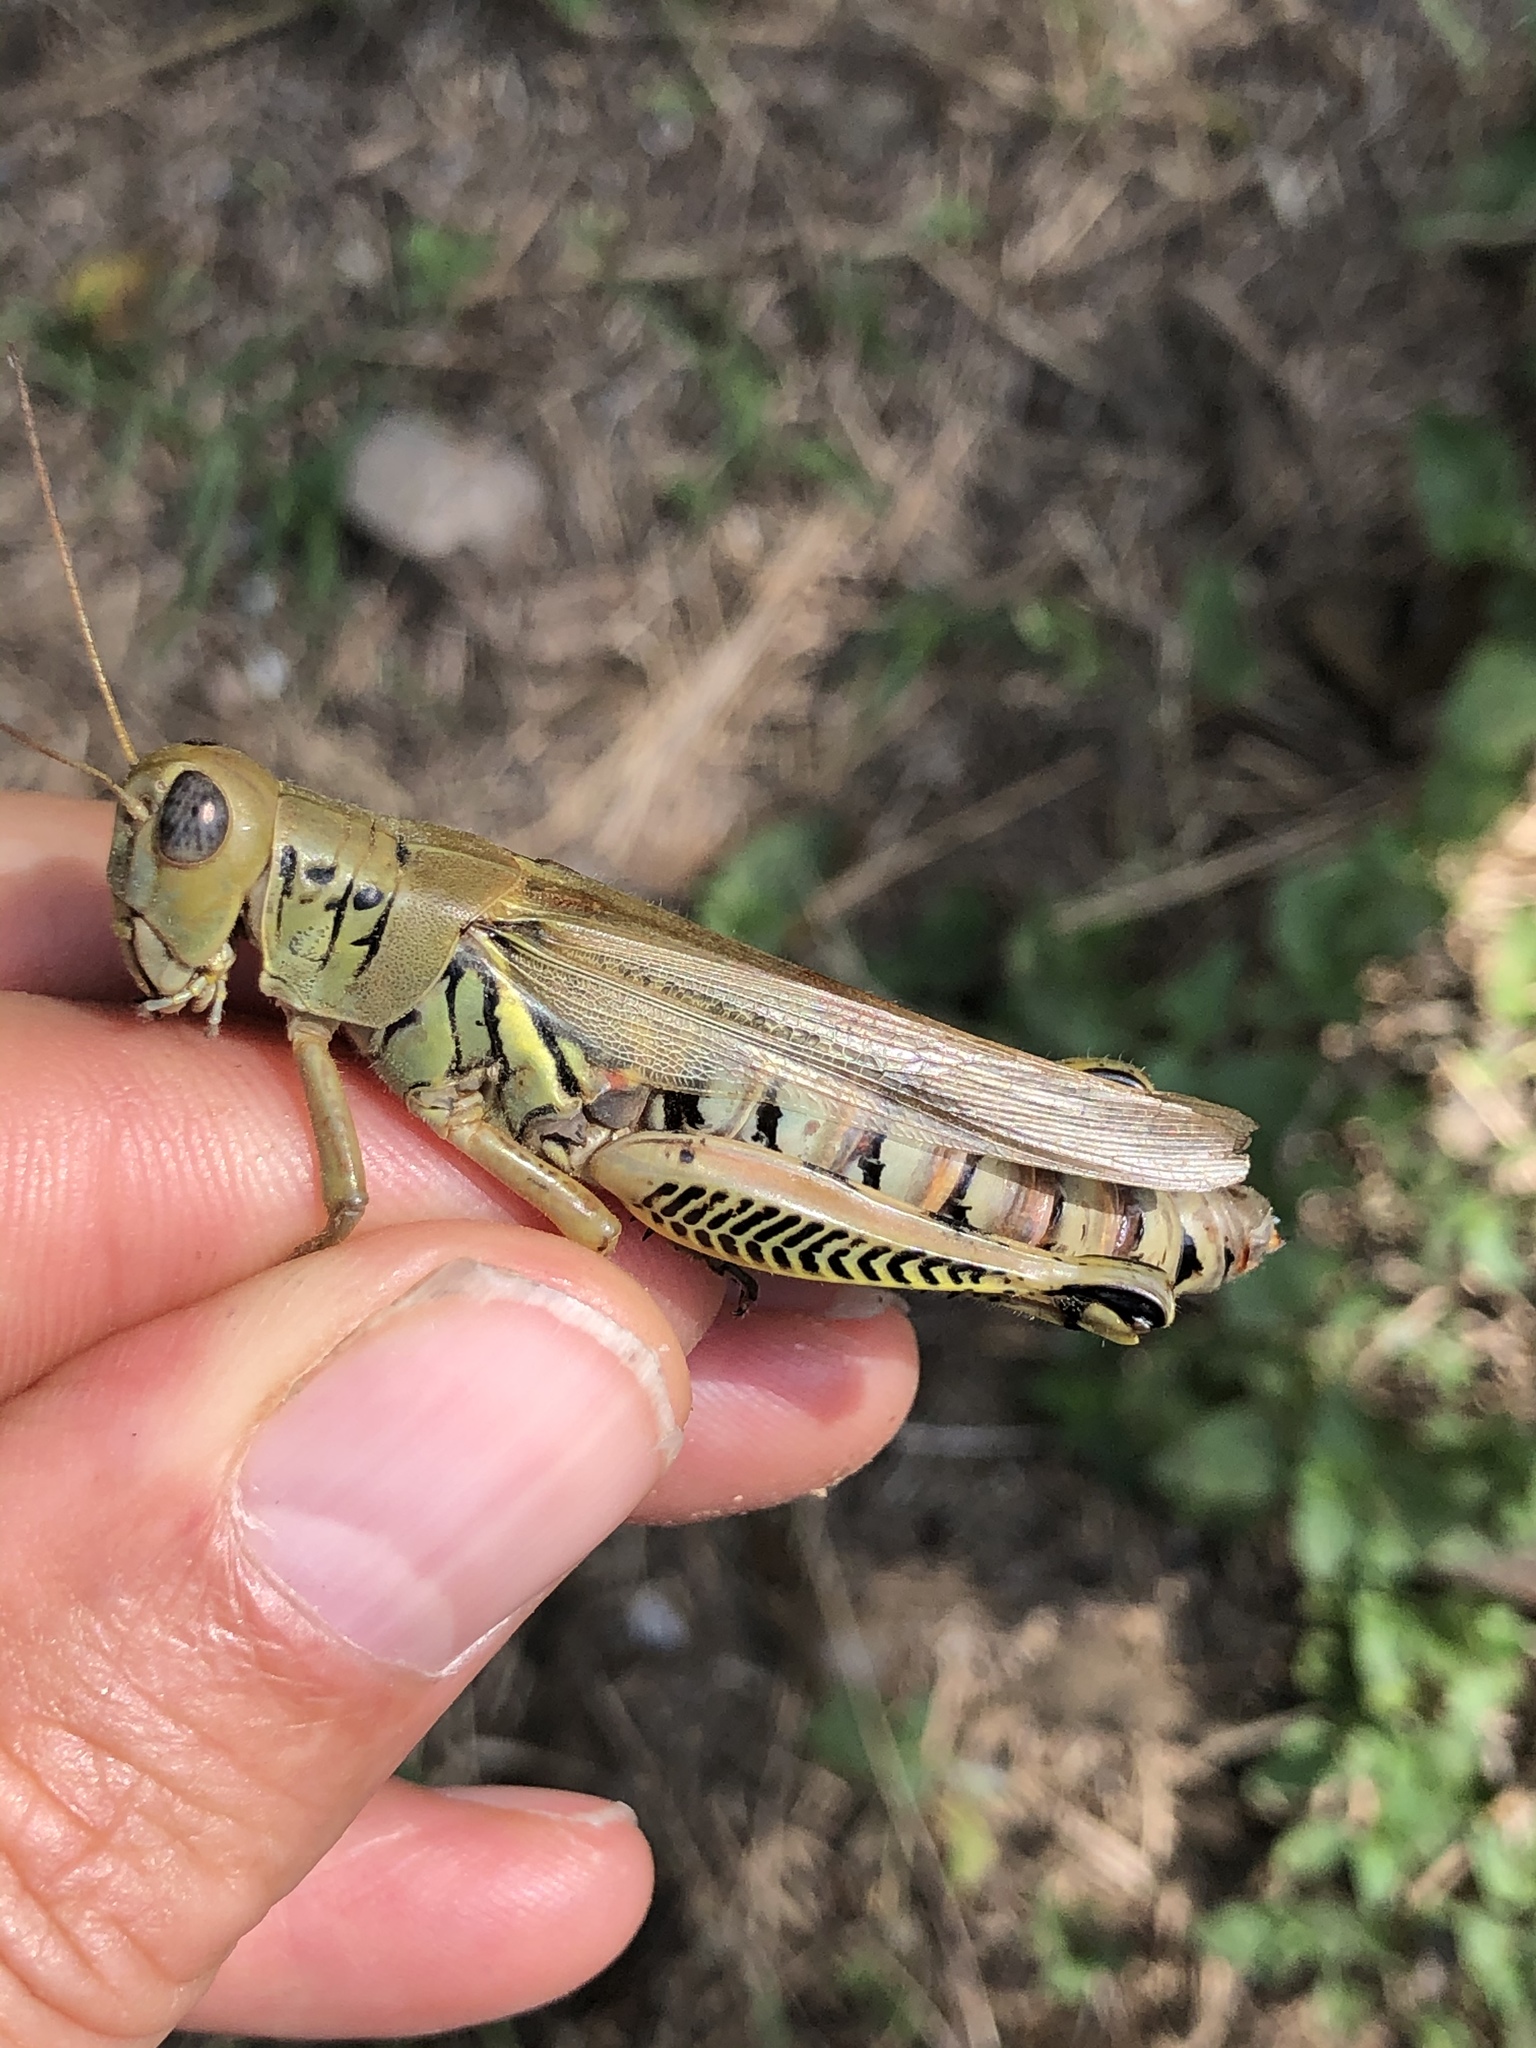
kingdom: Animalia
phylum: Arthropoda
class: Insecta
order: Orthoptera
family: Acrididae
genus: Melanoplus
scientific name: Melanoplus differentialis
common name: Differential grasshopper
